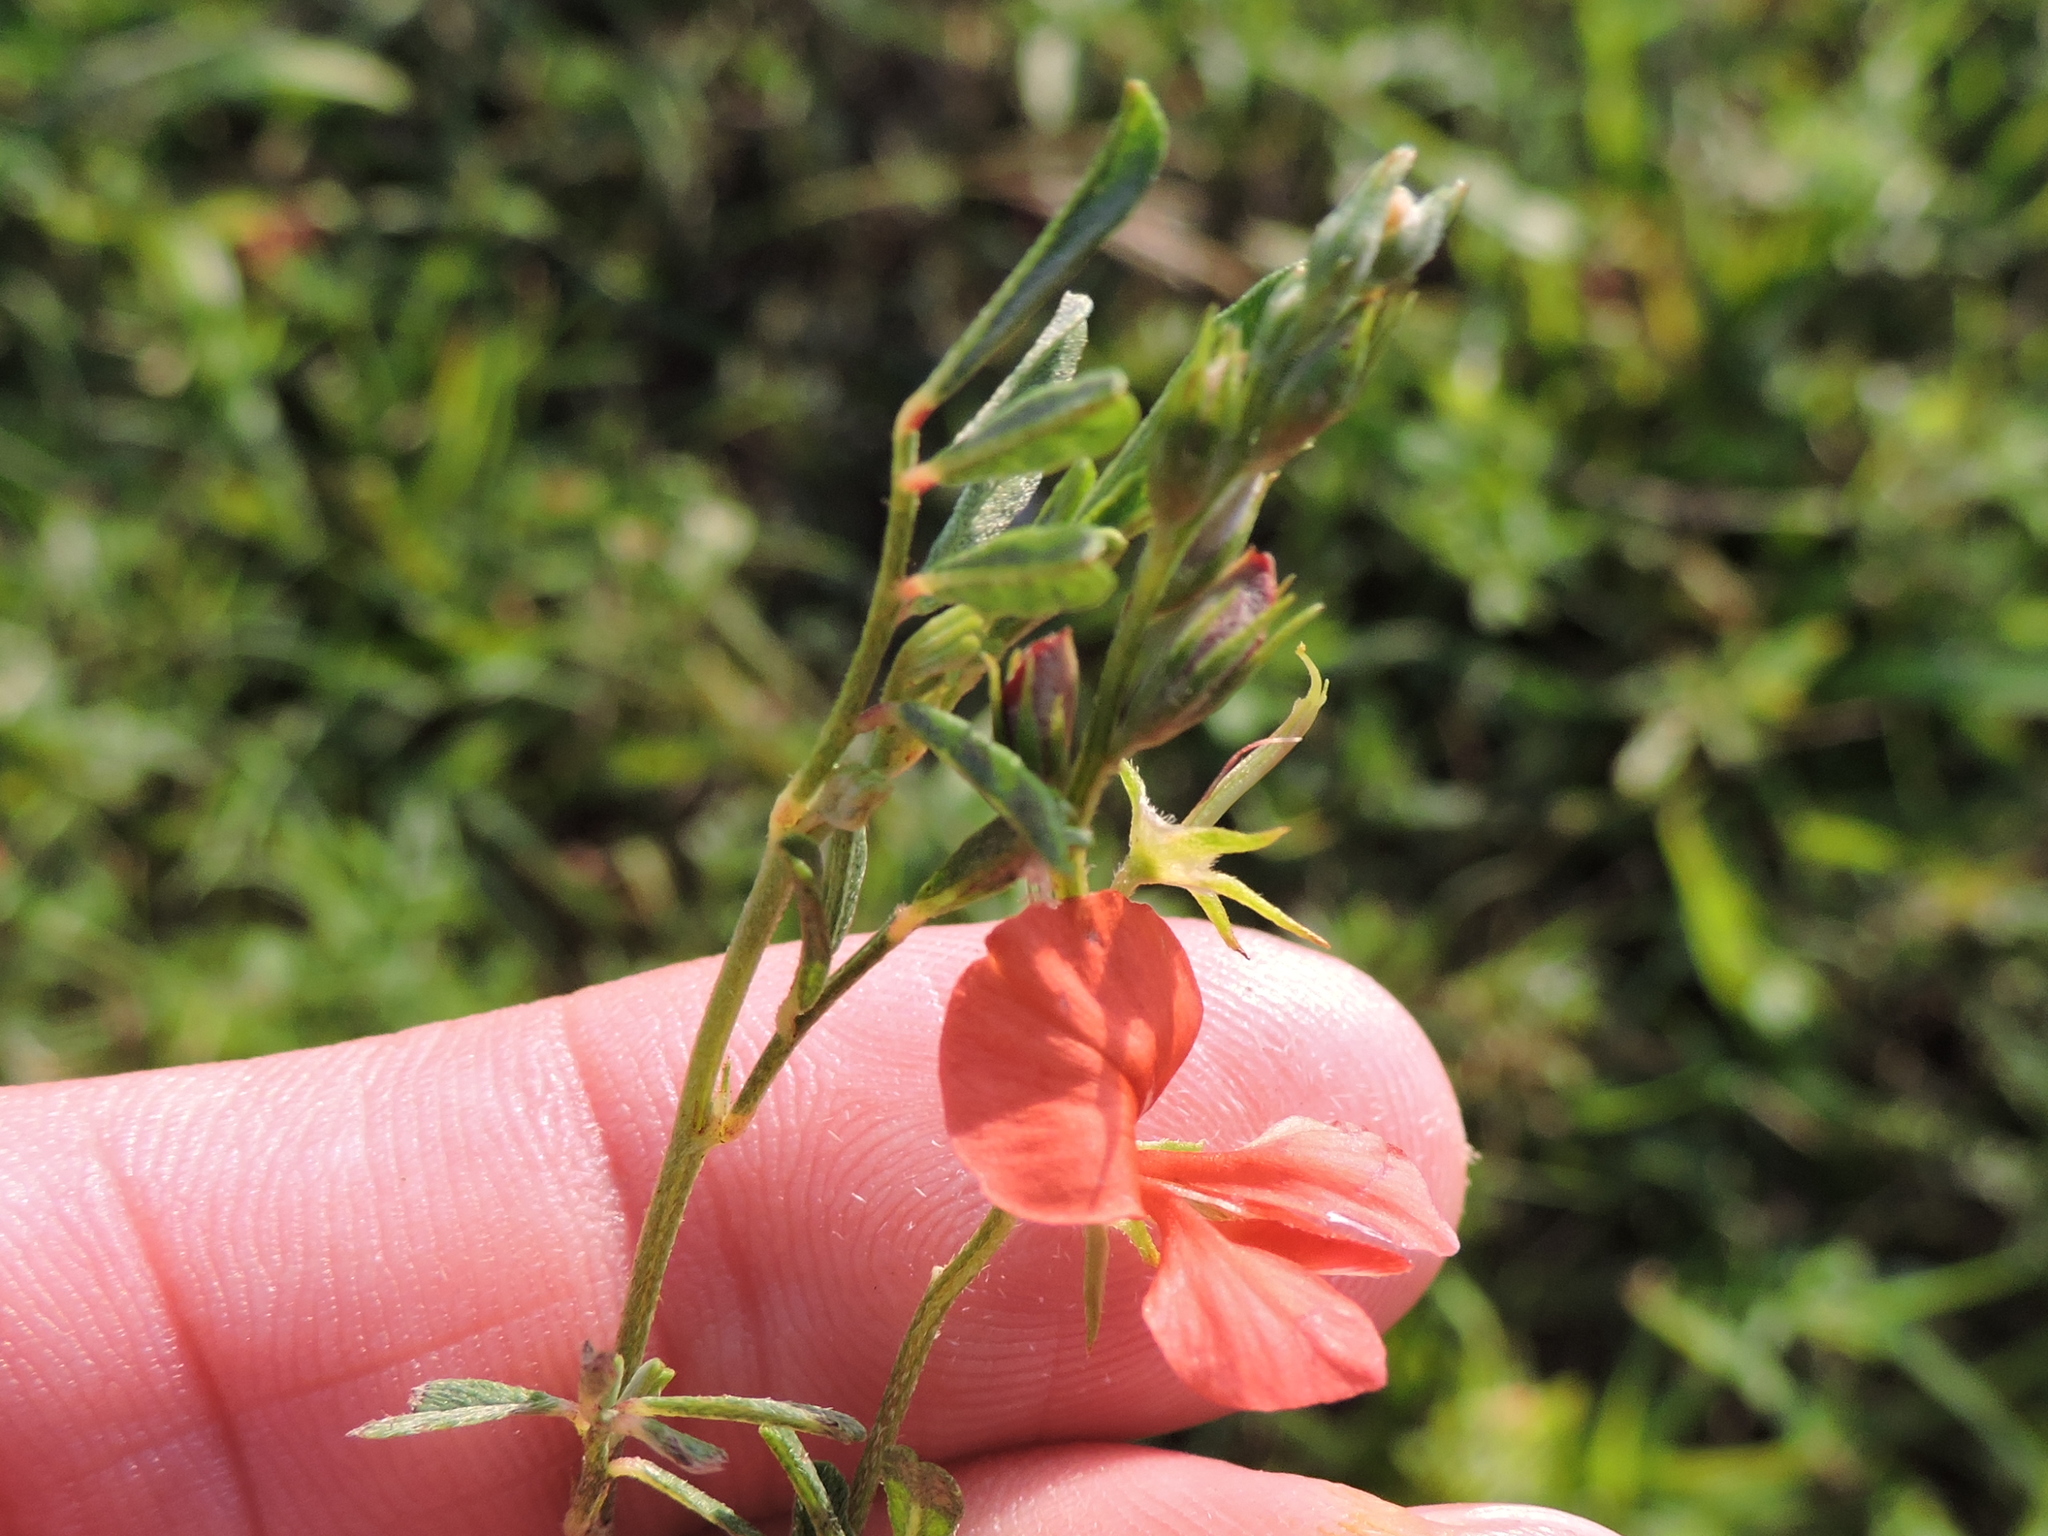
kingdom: Plantae
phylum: Tracheophyta
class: Magnoliopsida
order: Fabales
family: Fabaceae
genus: Indigofera
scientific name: Indigofera miniata
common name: Coast indigo
